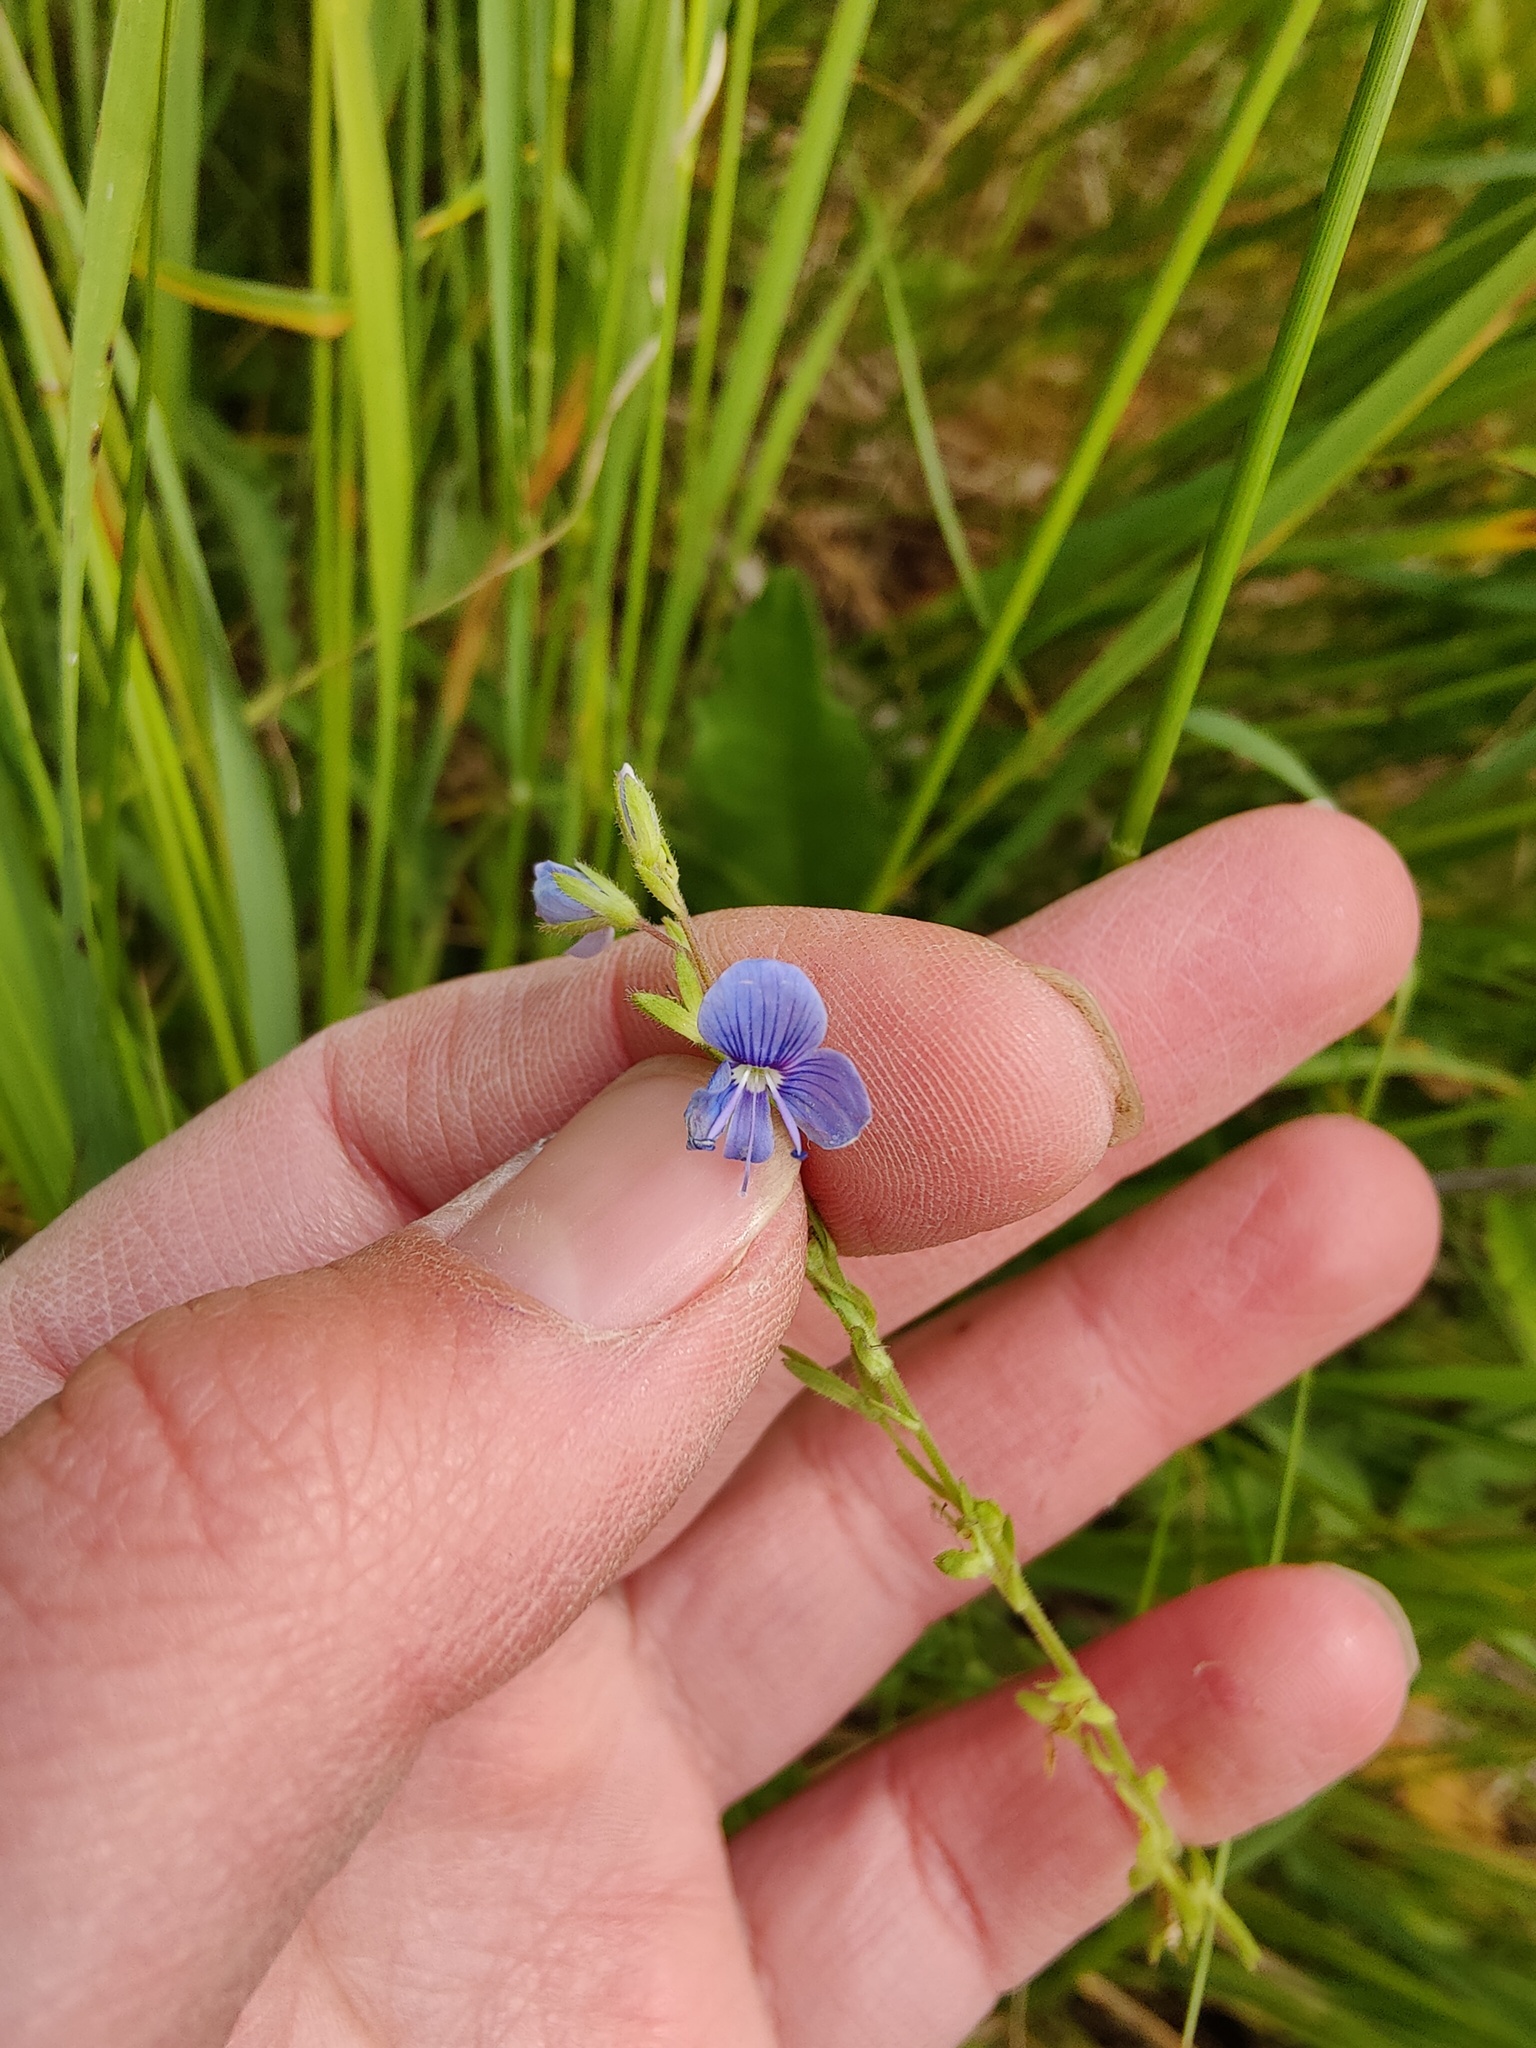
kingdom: Plantae
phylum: Tracheophyta
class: Magnoliopsida
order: Lamiales
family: Plantaginaceae
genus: Veronica
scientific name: Veronica chamaedrys
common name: Germander speedwell
